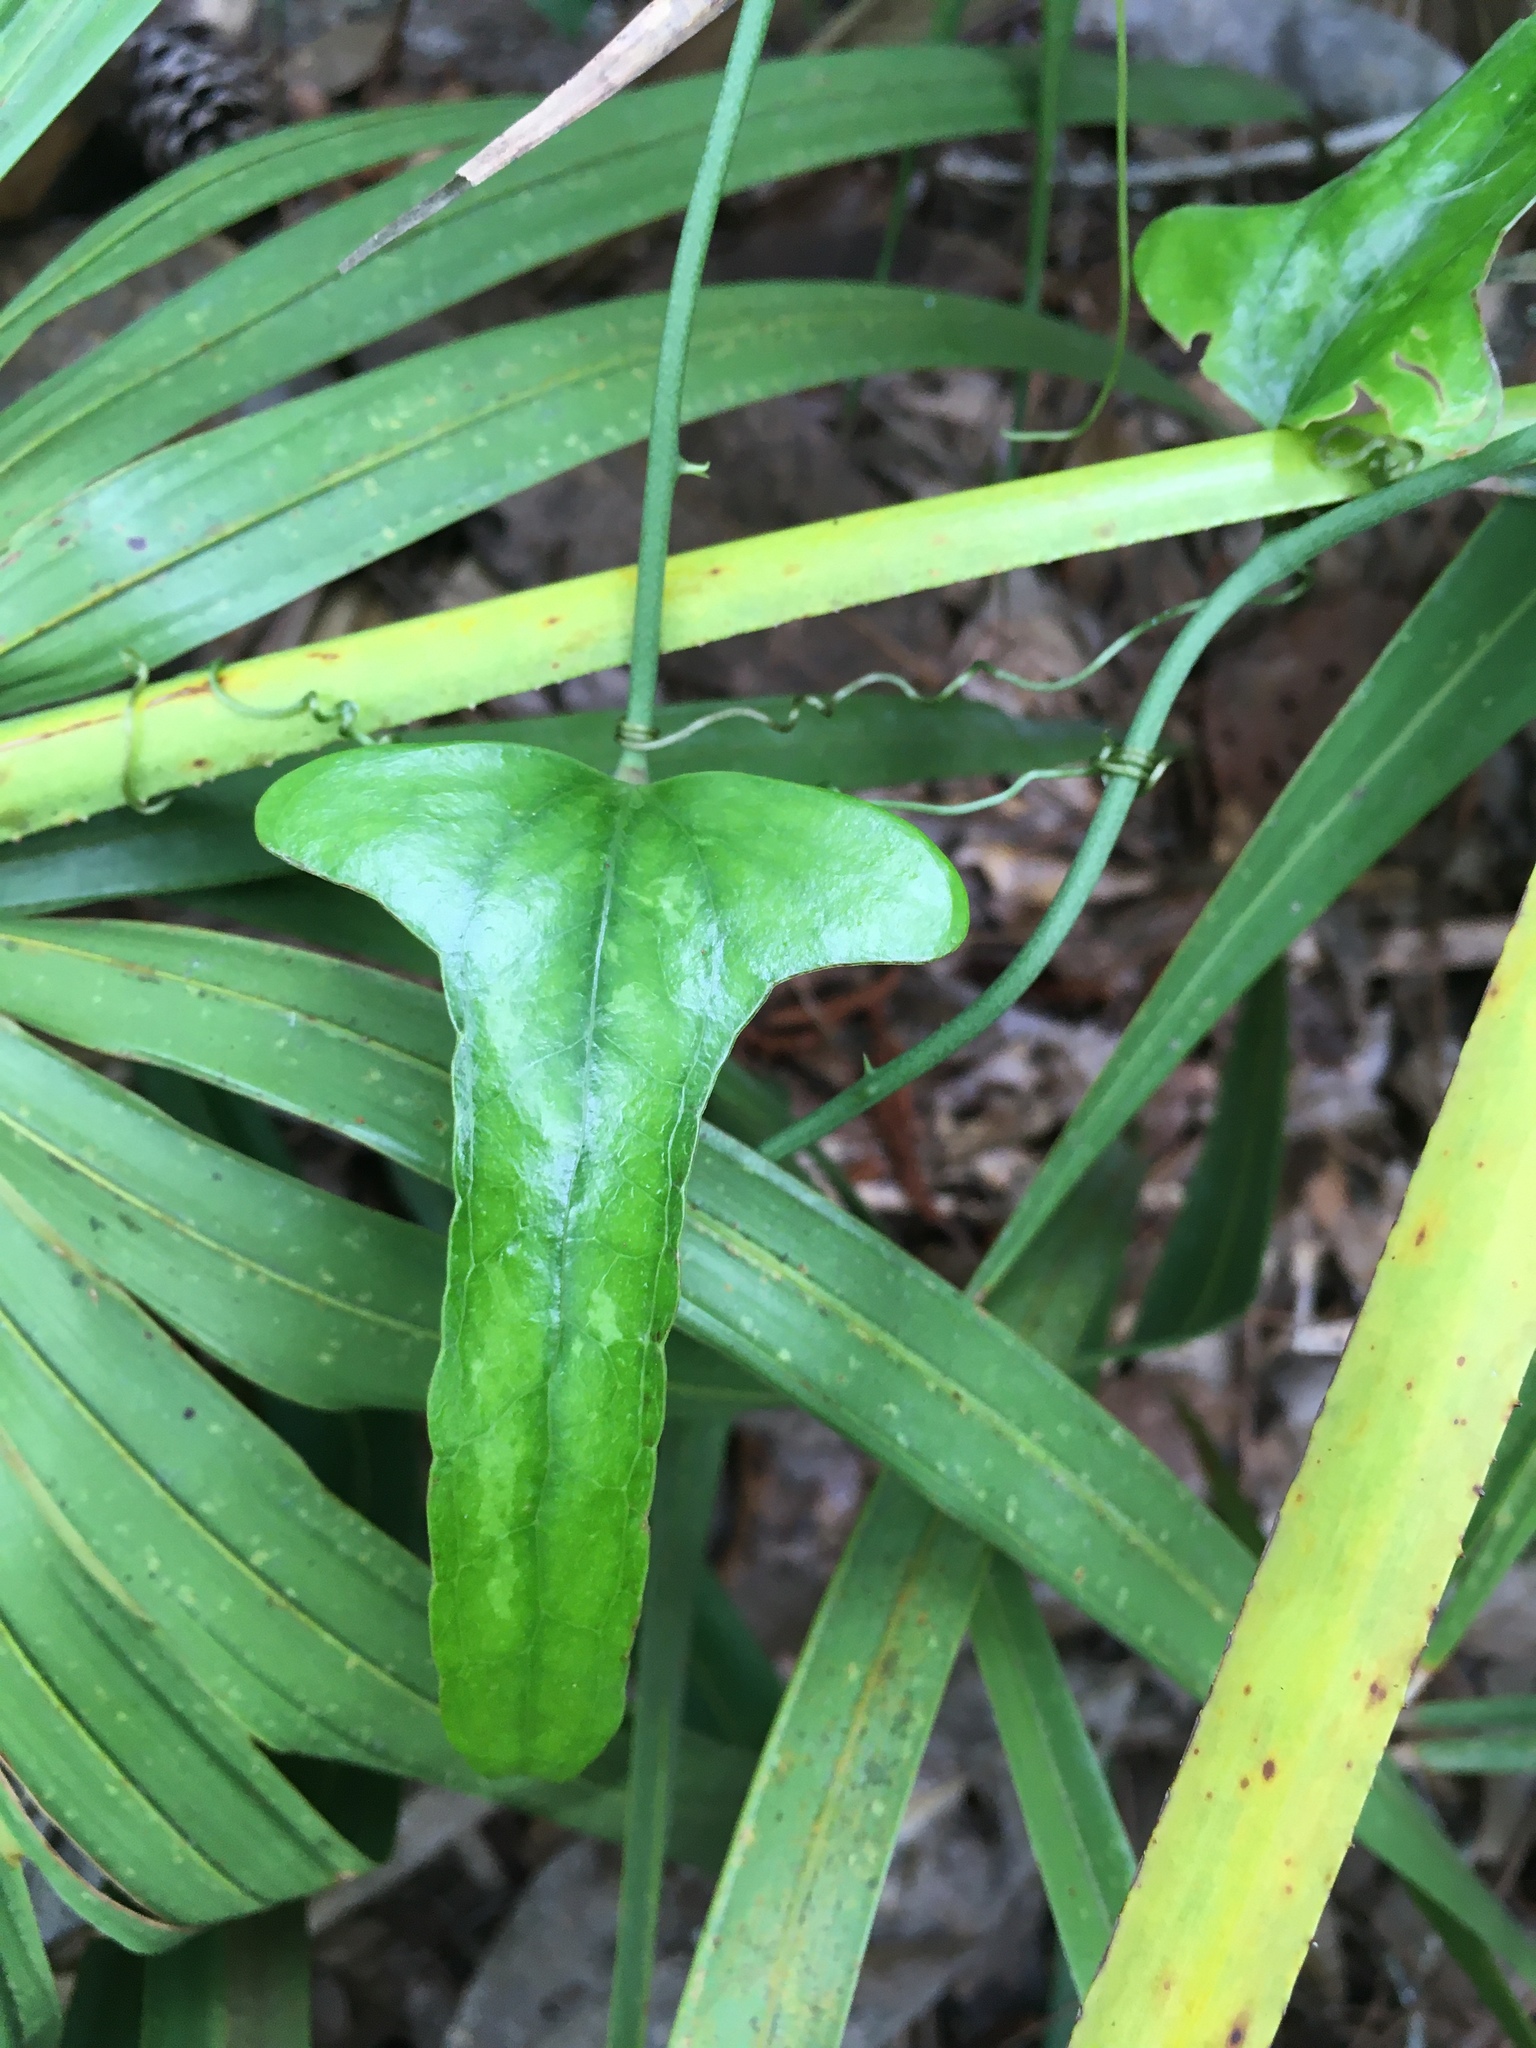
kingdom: Plantae
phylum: Tracheophyta
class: Liliopsida
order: Liliales
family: Smilacaceae
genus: Smilax
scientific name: Smilax auriculata
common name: Wild bamboo
